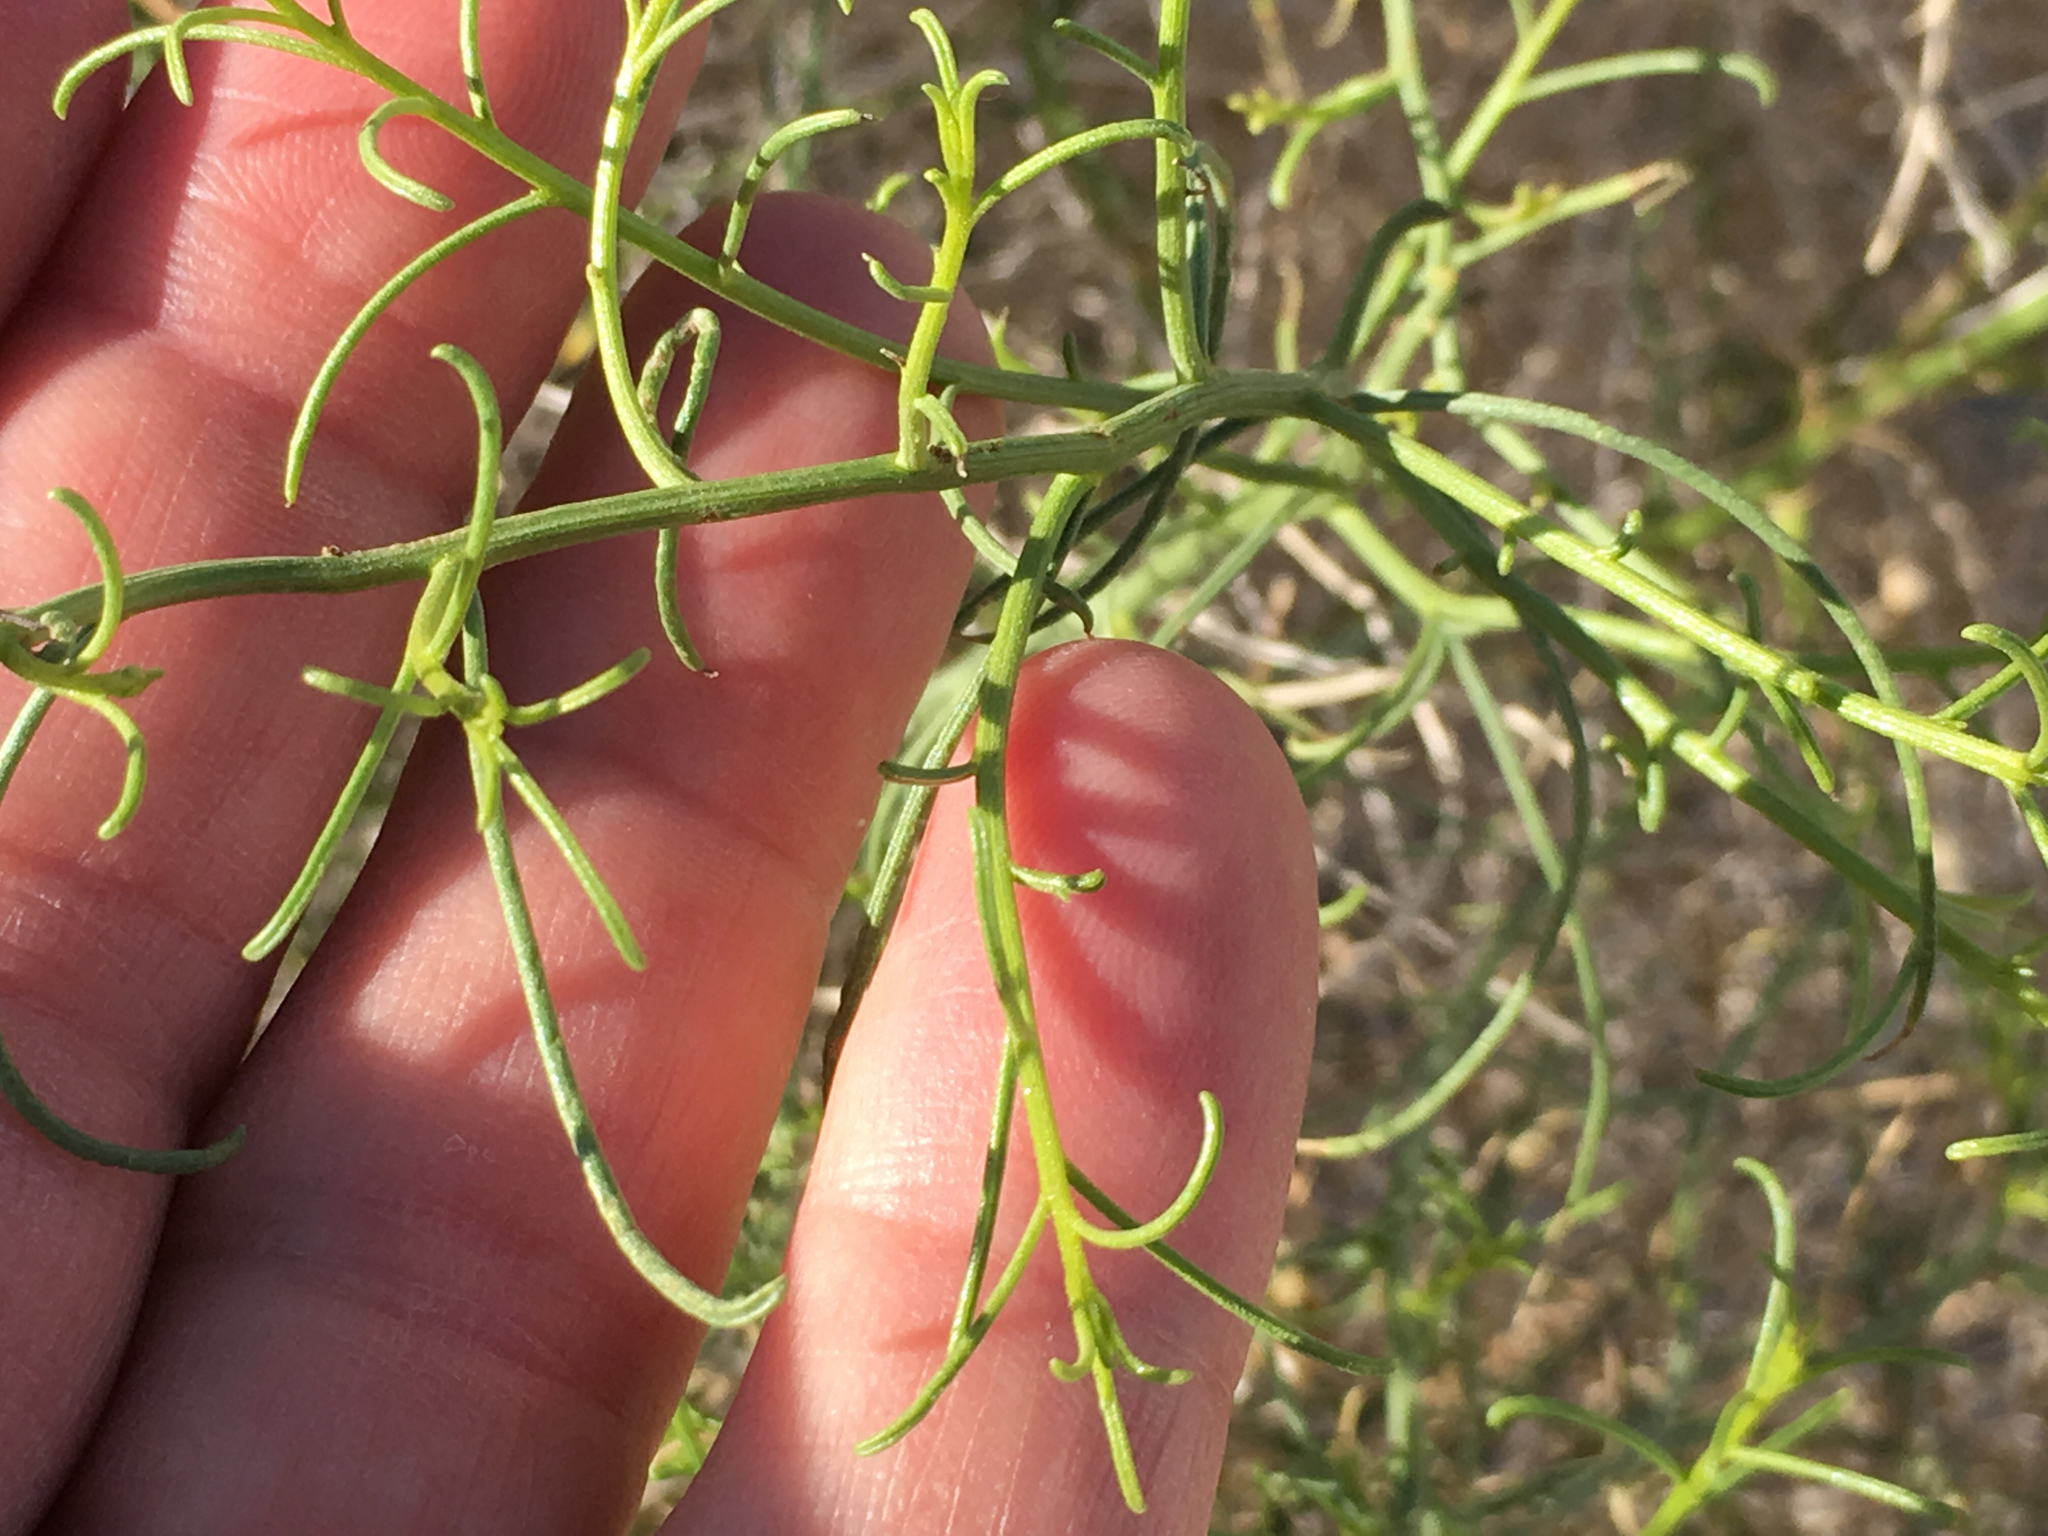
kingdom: Plantae
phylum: Tracheophyta
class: Magnoliopsida
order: Asterales
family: Asteraceae
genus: Ambrosia
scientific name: Ambrosia salsola
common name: Burrobrush
